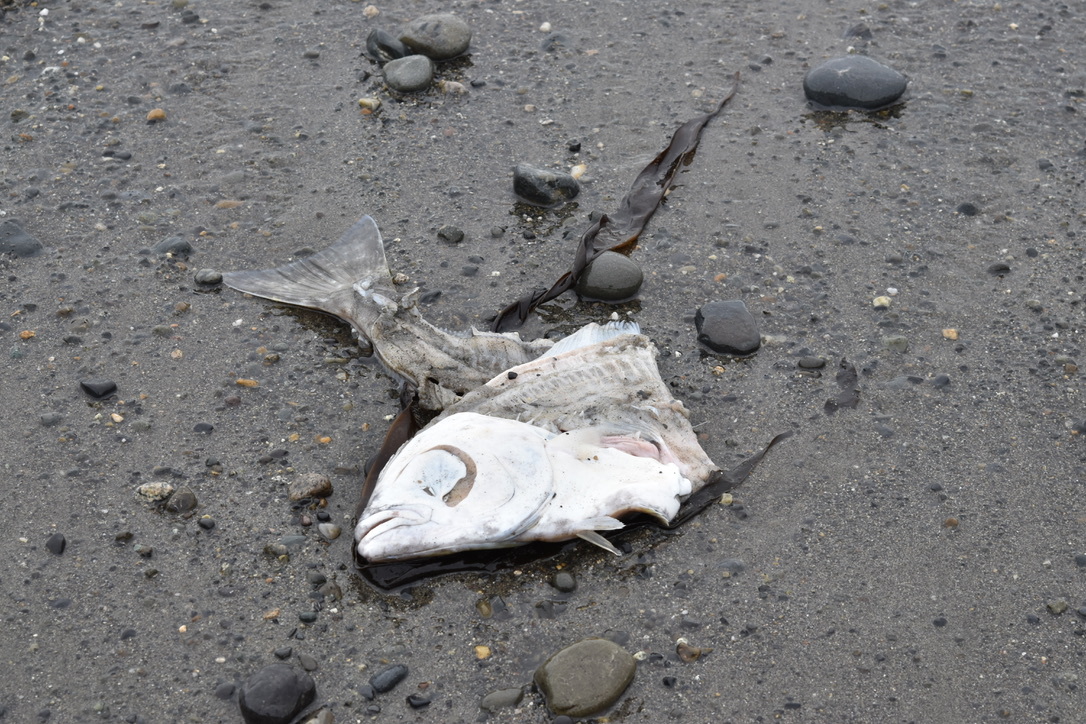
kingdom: Animalia
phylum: Chordata
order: Pleuronectiformes
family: Pleuronectidae
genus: Hippoglossus
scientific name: Hippoglossus stenolepis
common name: Pacific halibut
